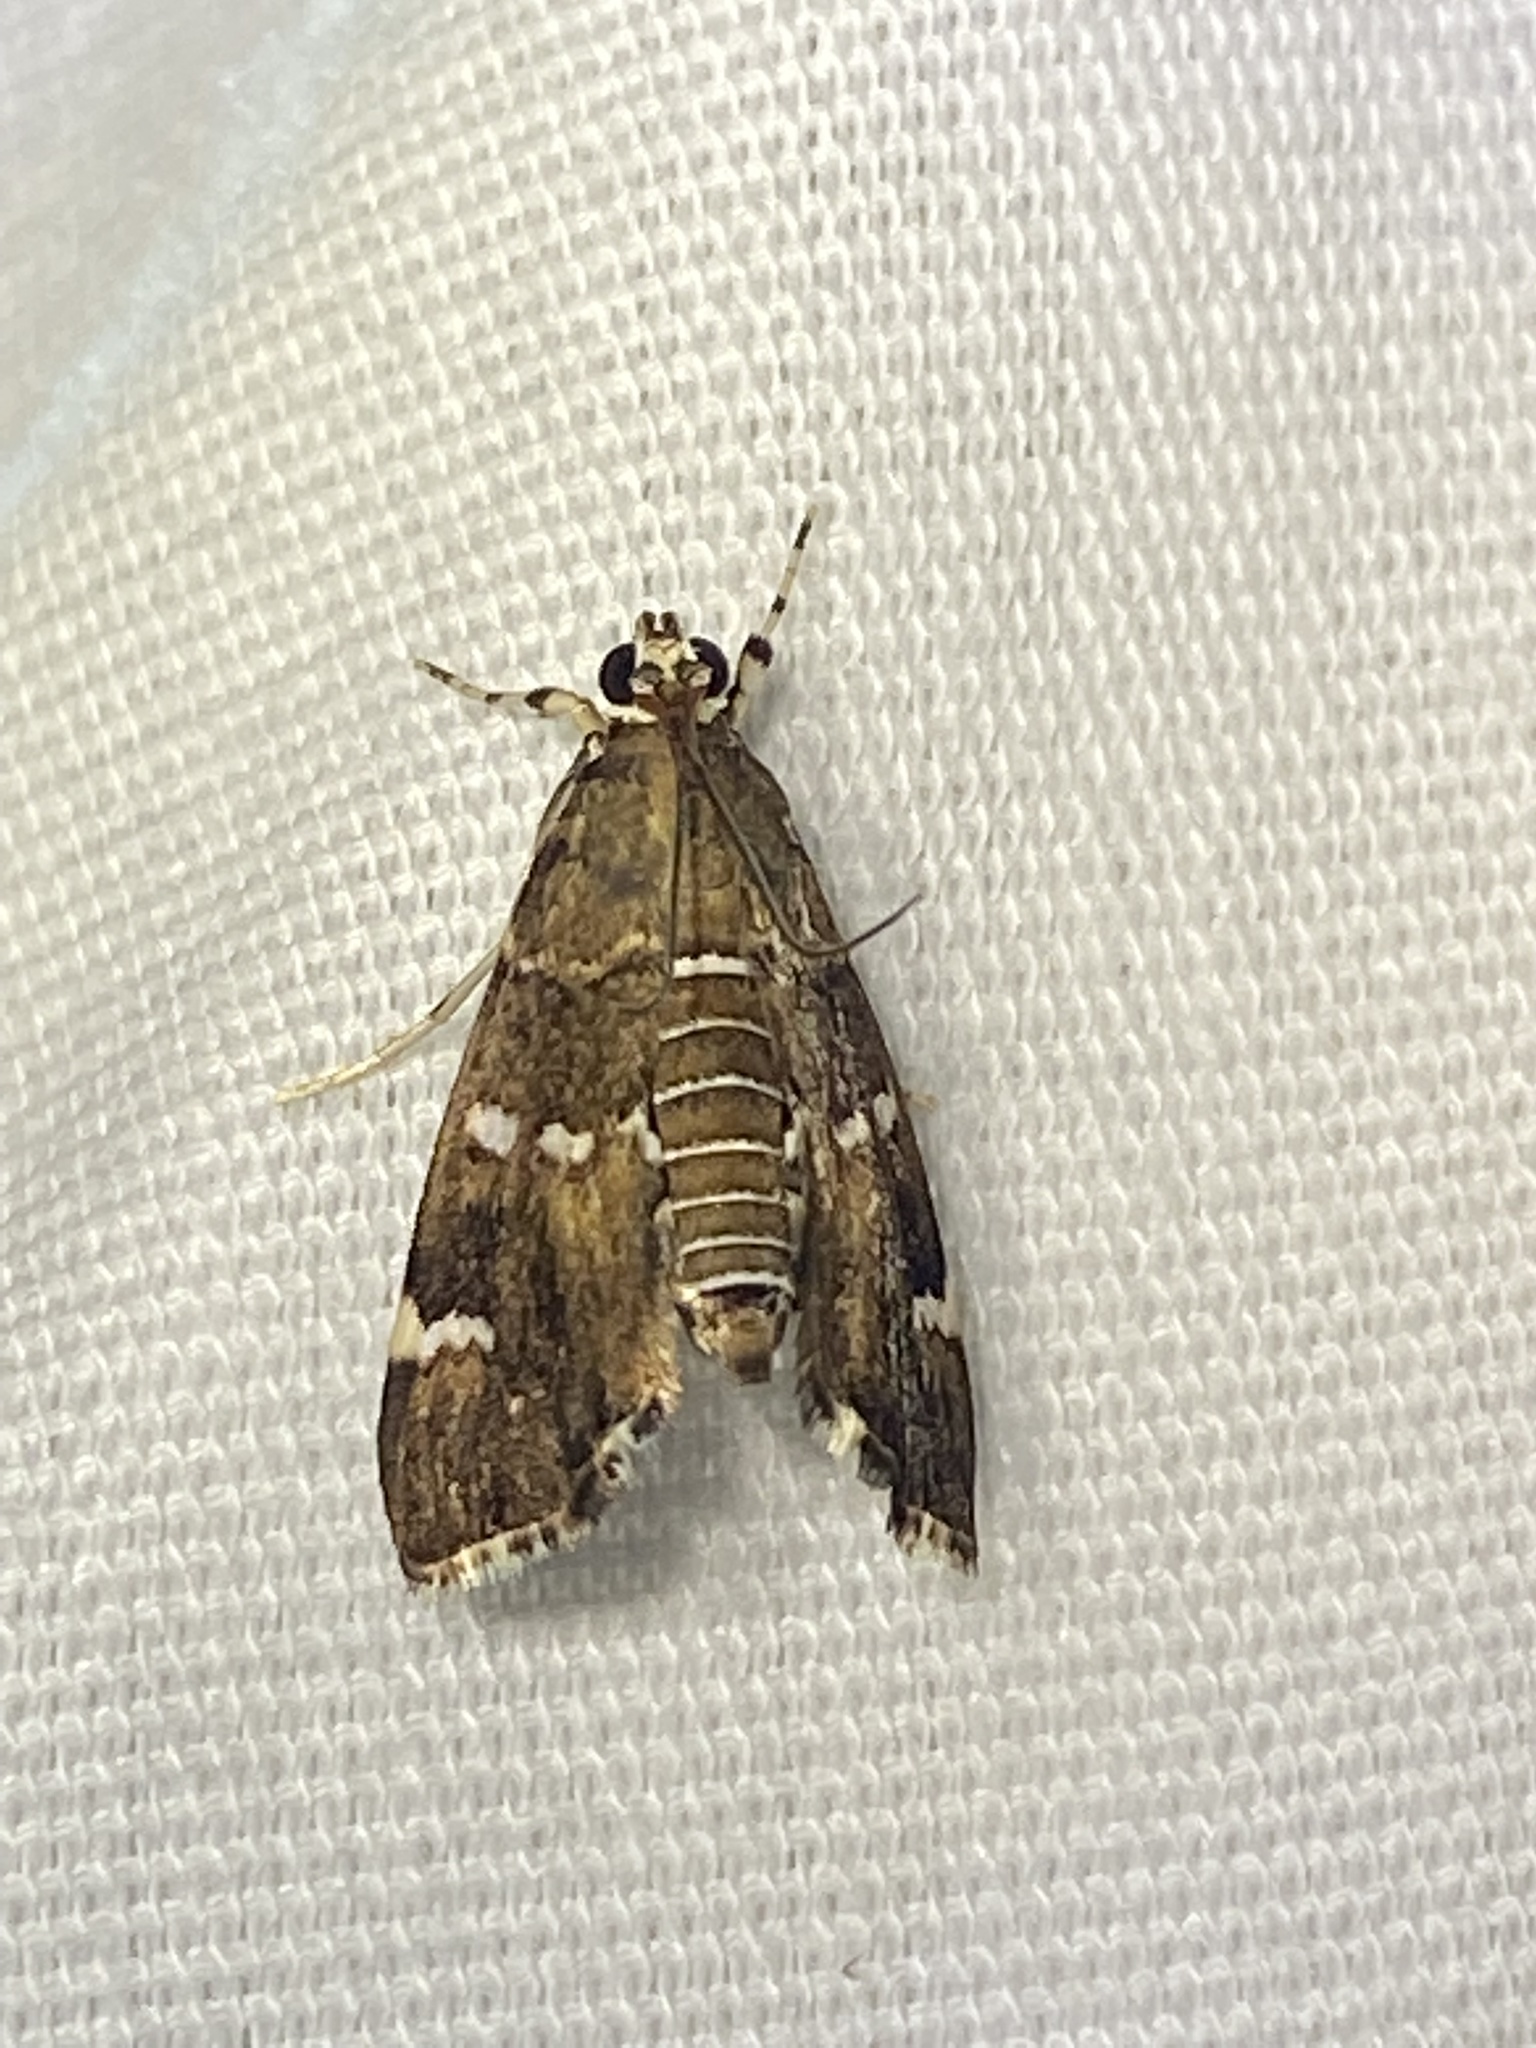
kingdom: Animalia
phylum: Arthropoda
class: Insecta
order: Lepidoptera
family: Crambidae
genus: Hymenia
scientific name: Hymenia perspectalis
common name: Spotted beet webworm
